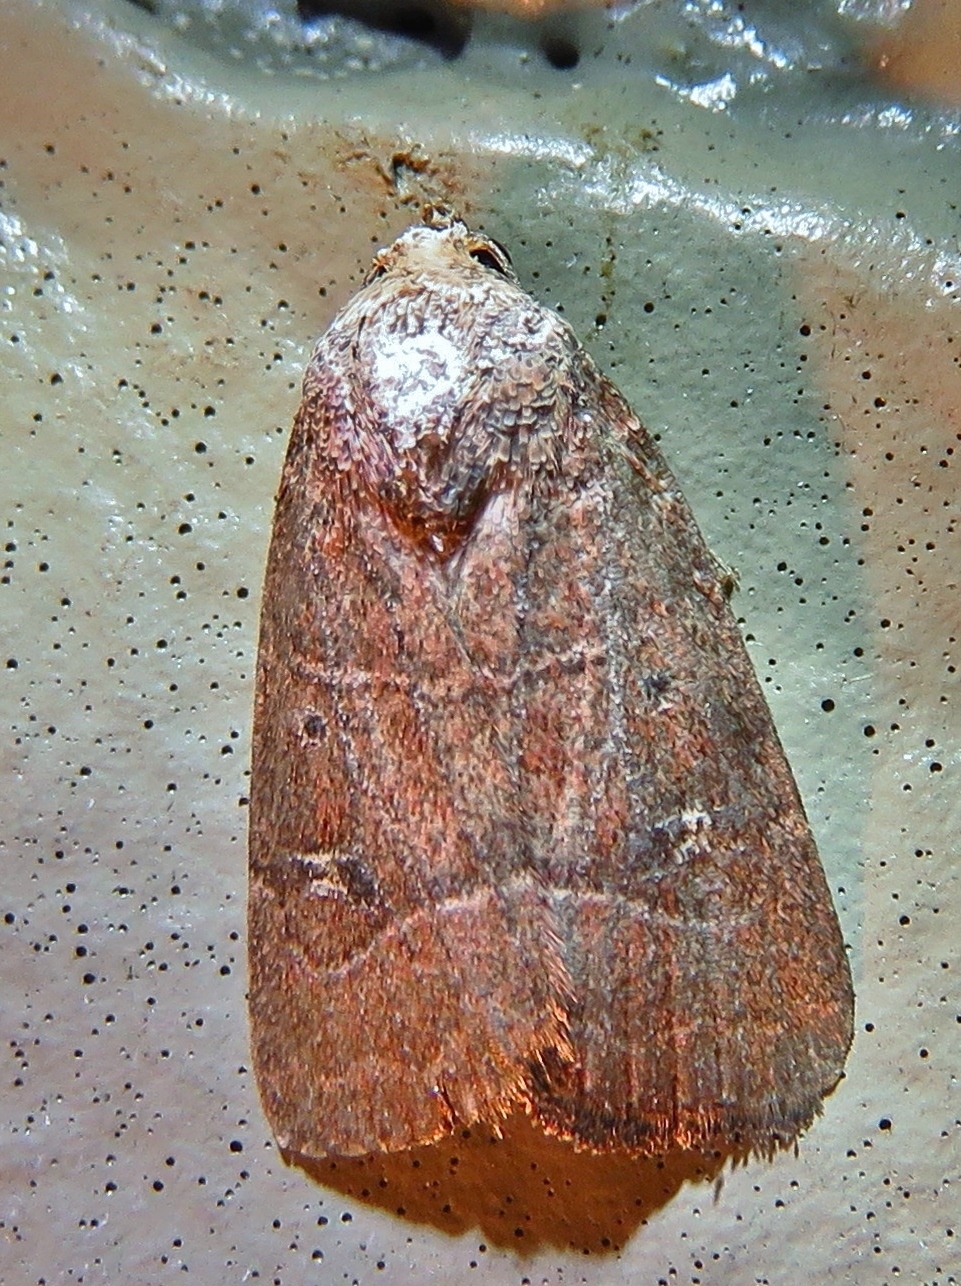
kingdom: Animalia
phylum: Arthropoda
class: Insecta
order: Lepidoptera
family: Noctuidae
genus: Elaphria
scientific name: Elaphria grata
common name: Grateful midget moth
